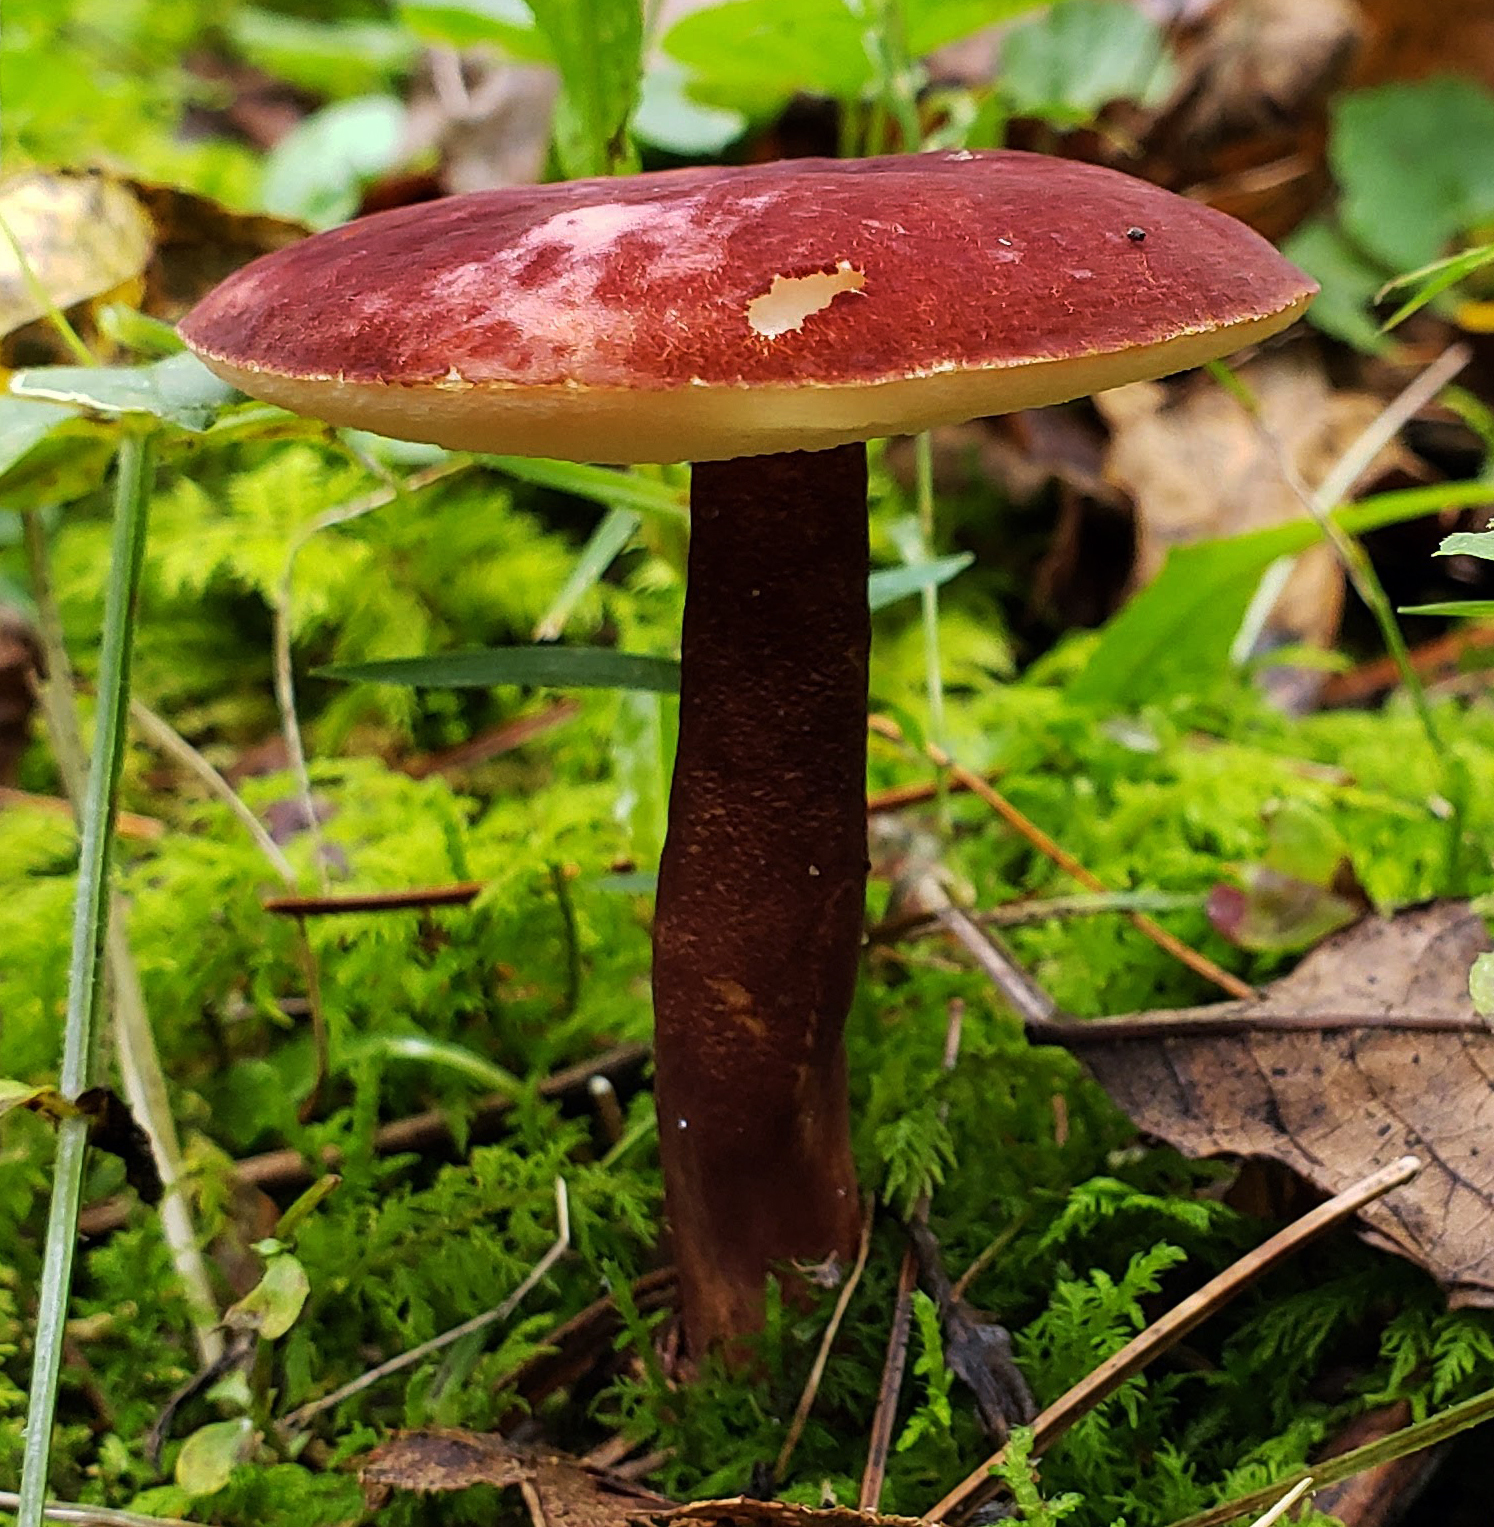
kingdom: Fungi
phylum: Basidiomycota
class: Agaricomycetes
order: Boletales
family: Gyroporaceae
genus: Gyroporus
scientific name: Gyroporus purpurinus
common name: Red gyroporus
